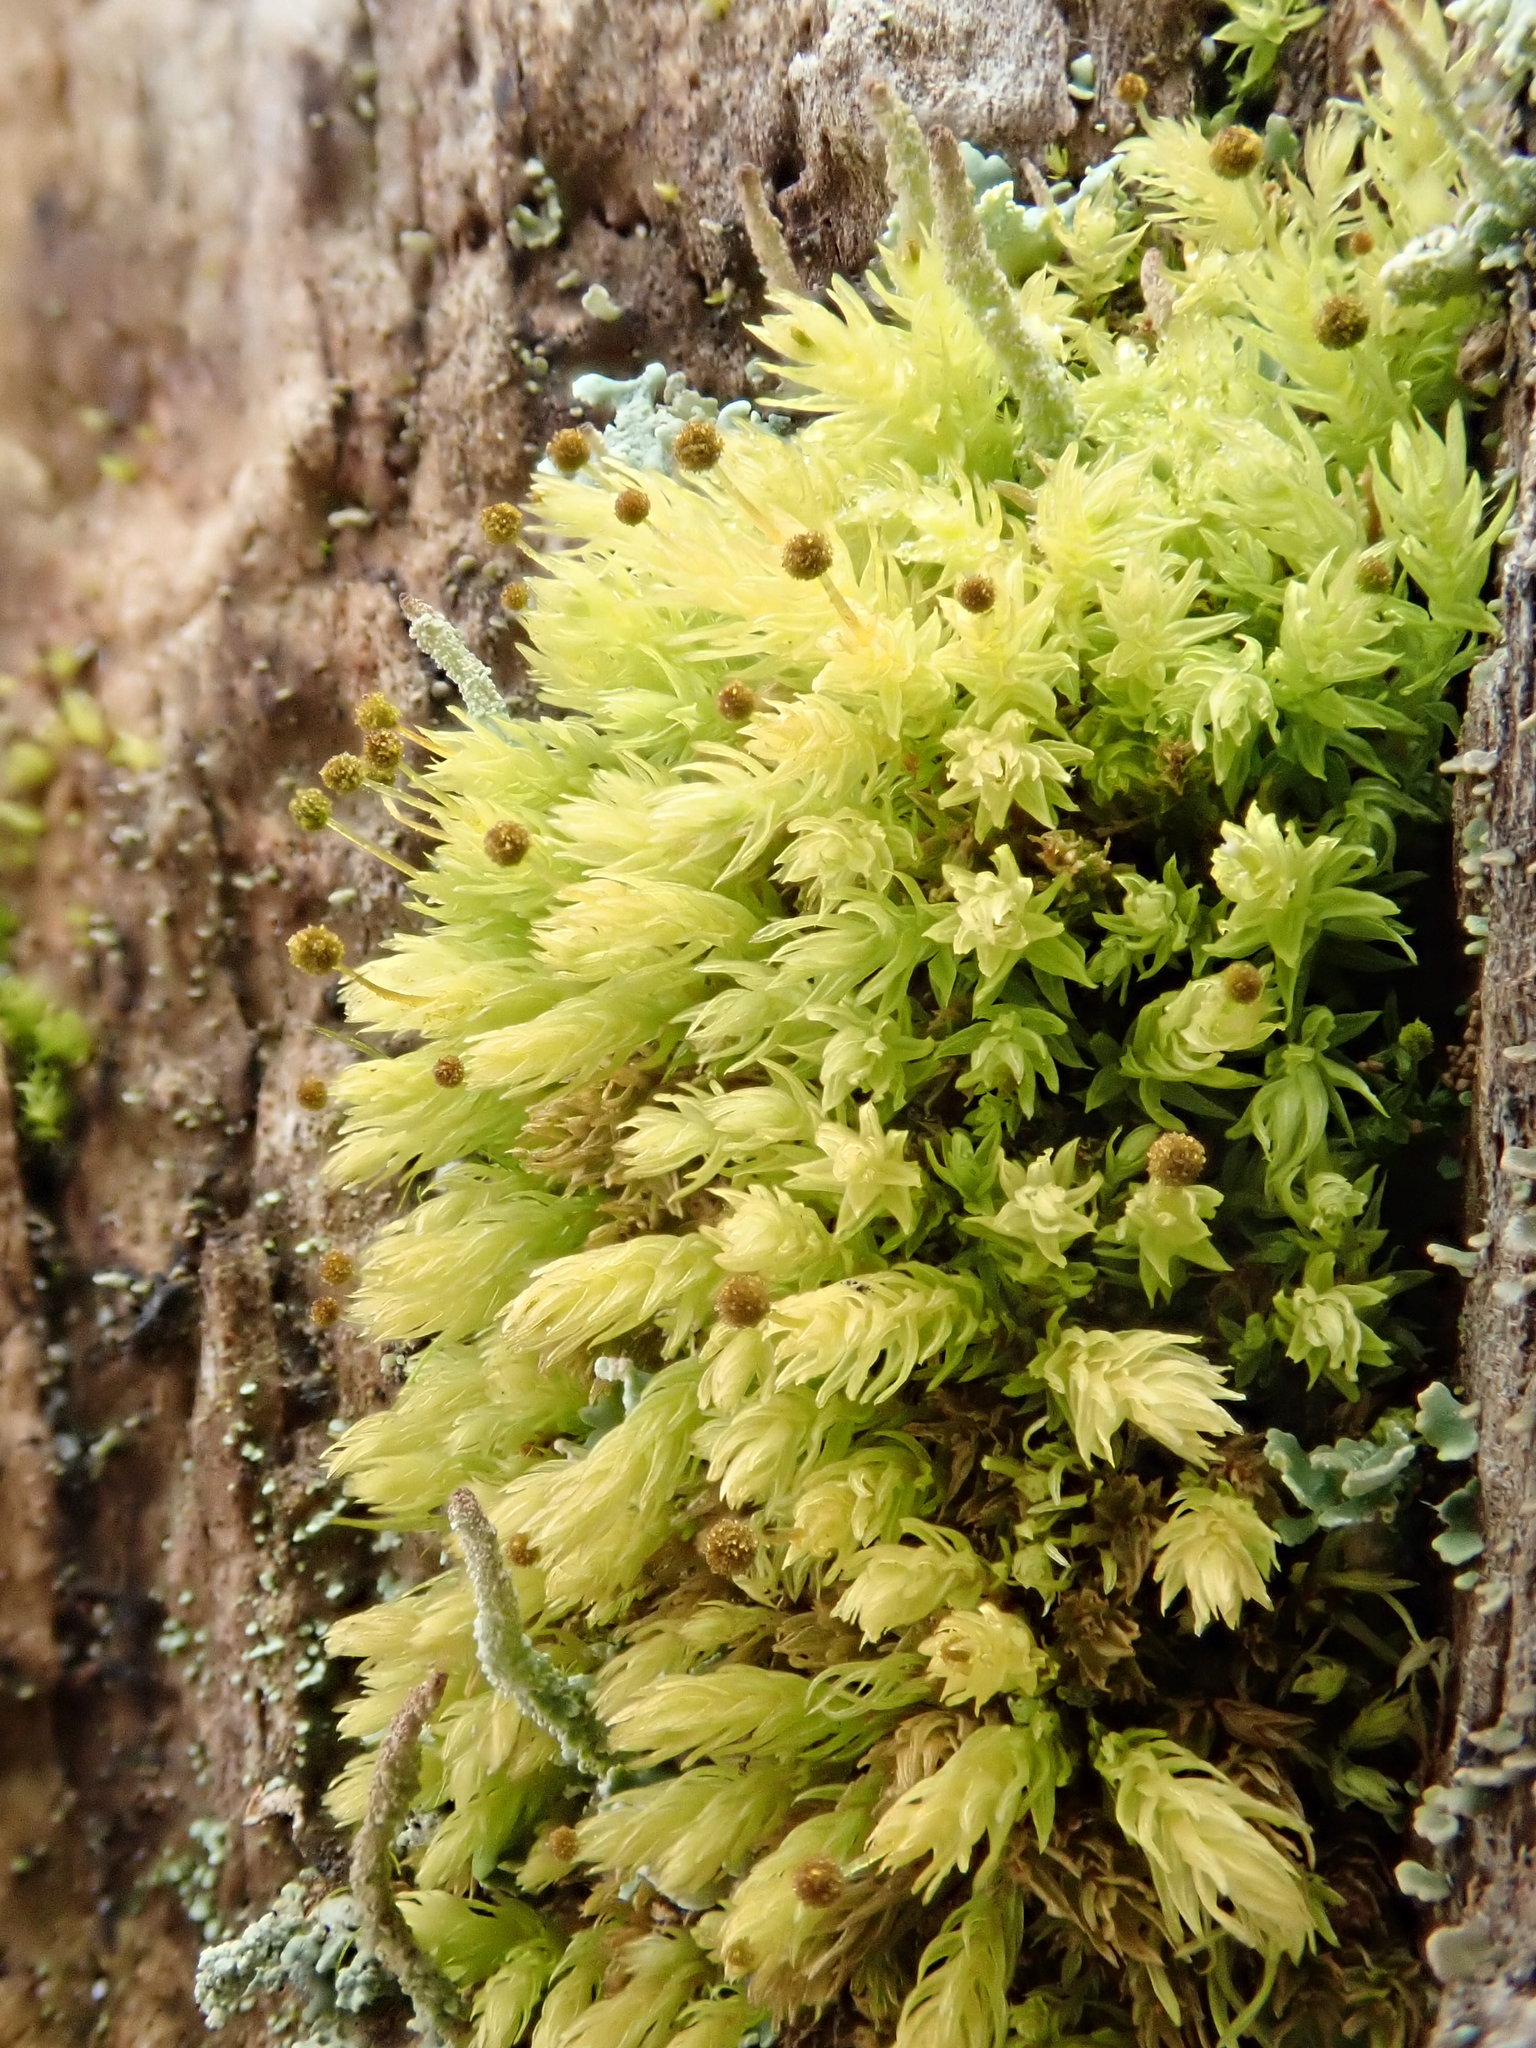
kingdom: Plantae
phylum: Bryophyta
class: Bryopsida
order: Aulacomniales
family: Aulacomniaceae
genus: Aulacomnium
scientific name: Aulacomnium androgynum
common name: Little groove moss
